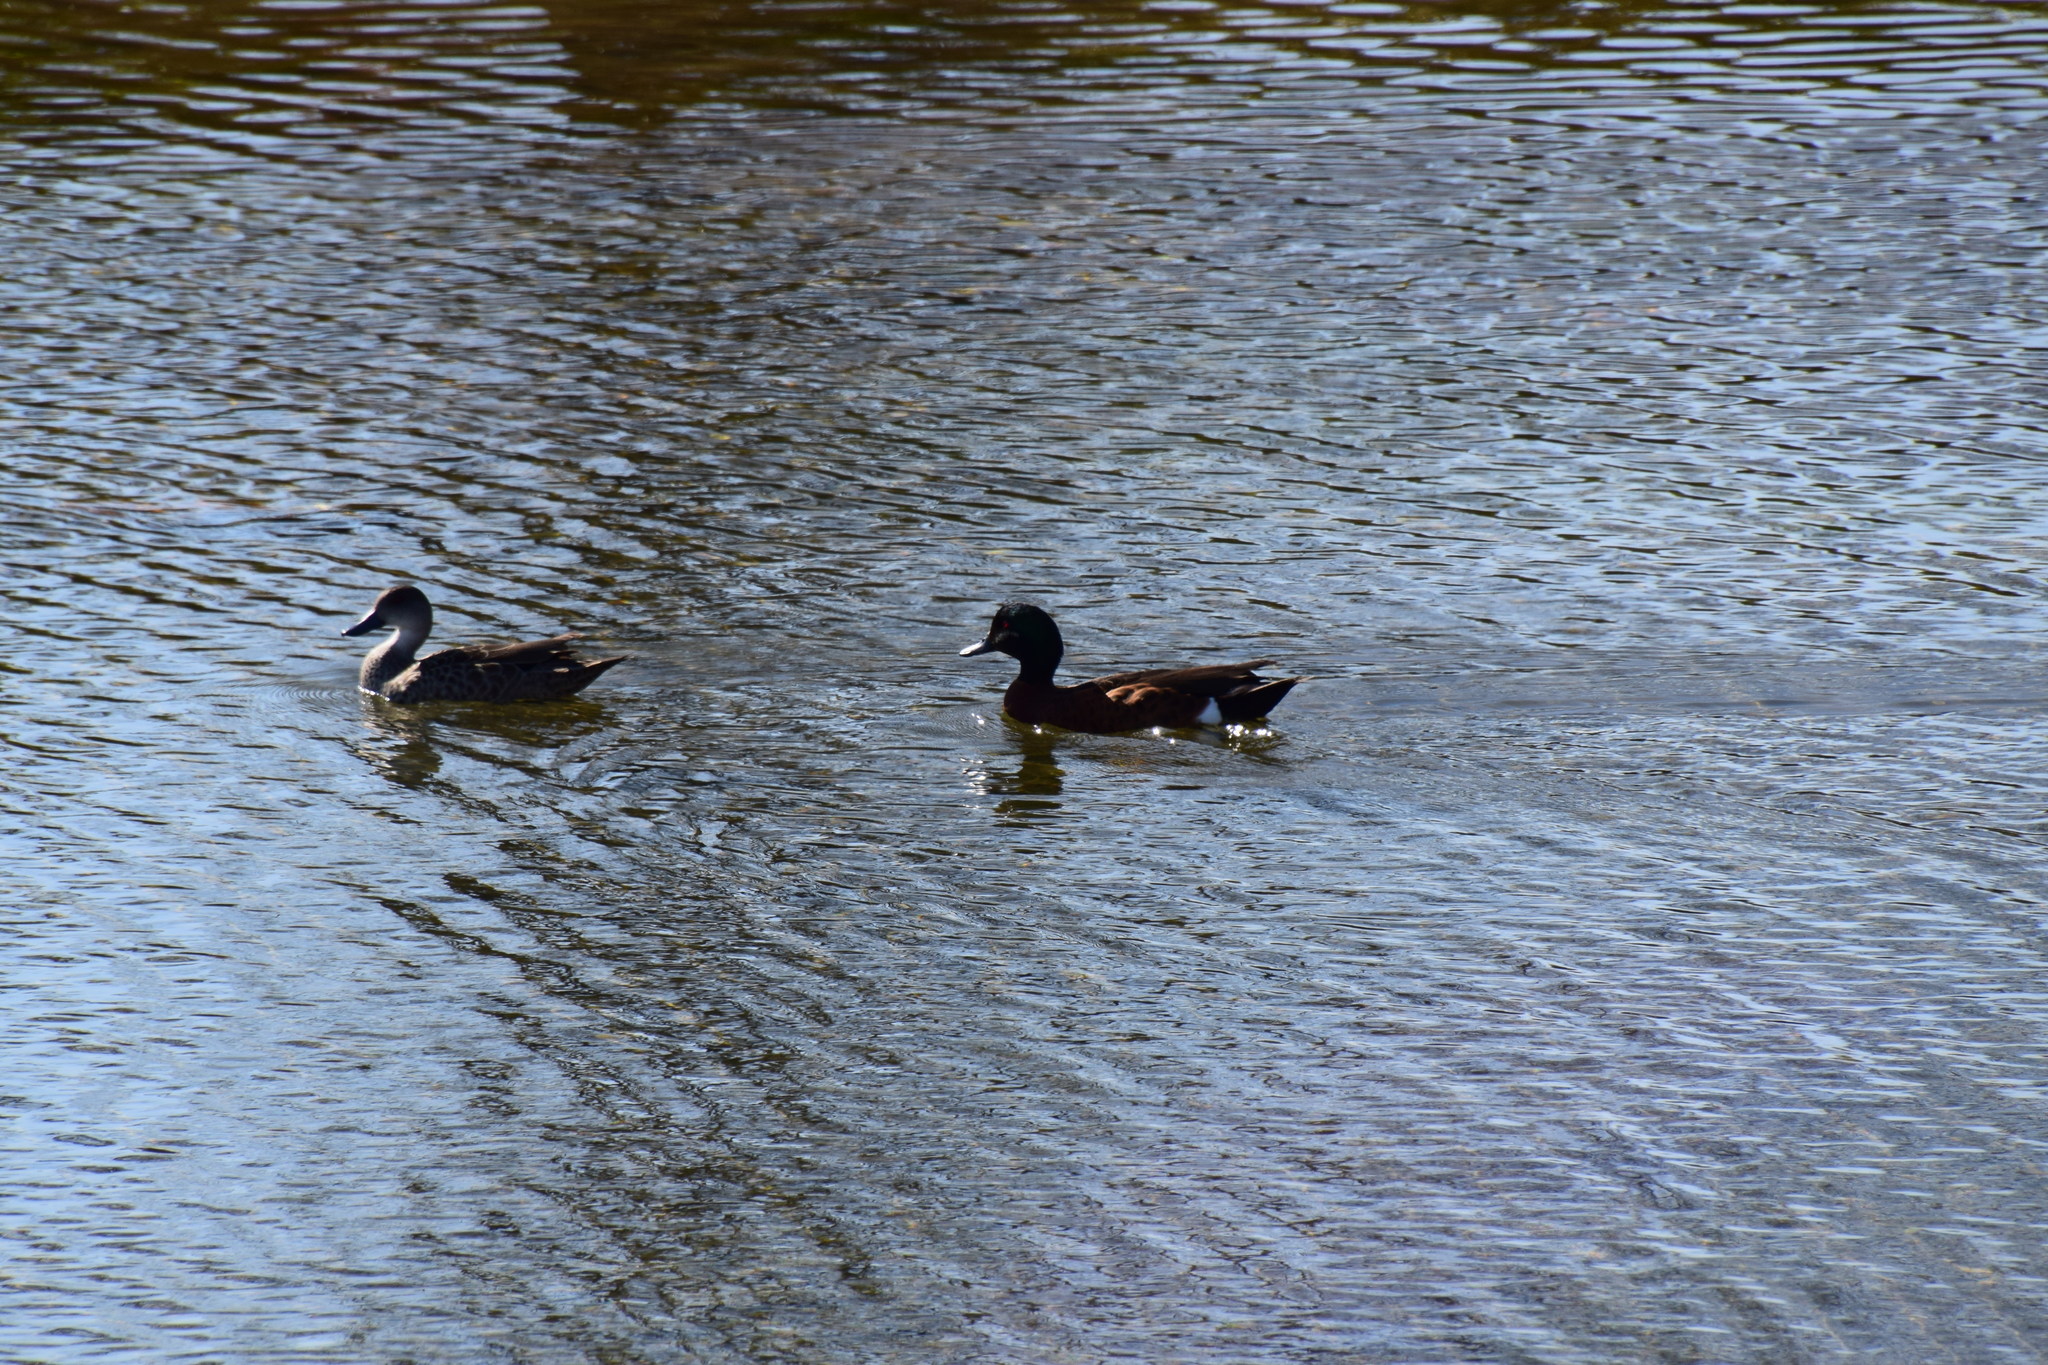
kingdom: Animalia
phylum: Chordata
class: Aves
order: Anseriformes
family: Anatidae
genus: Anas
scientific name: Anas castanea
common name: Chestnut teal
